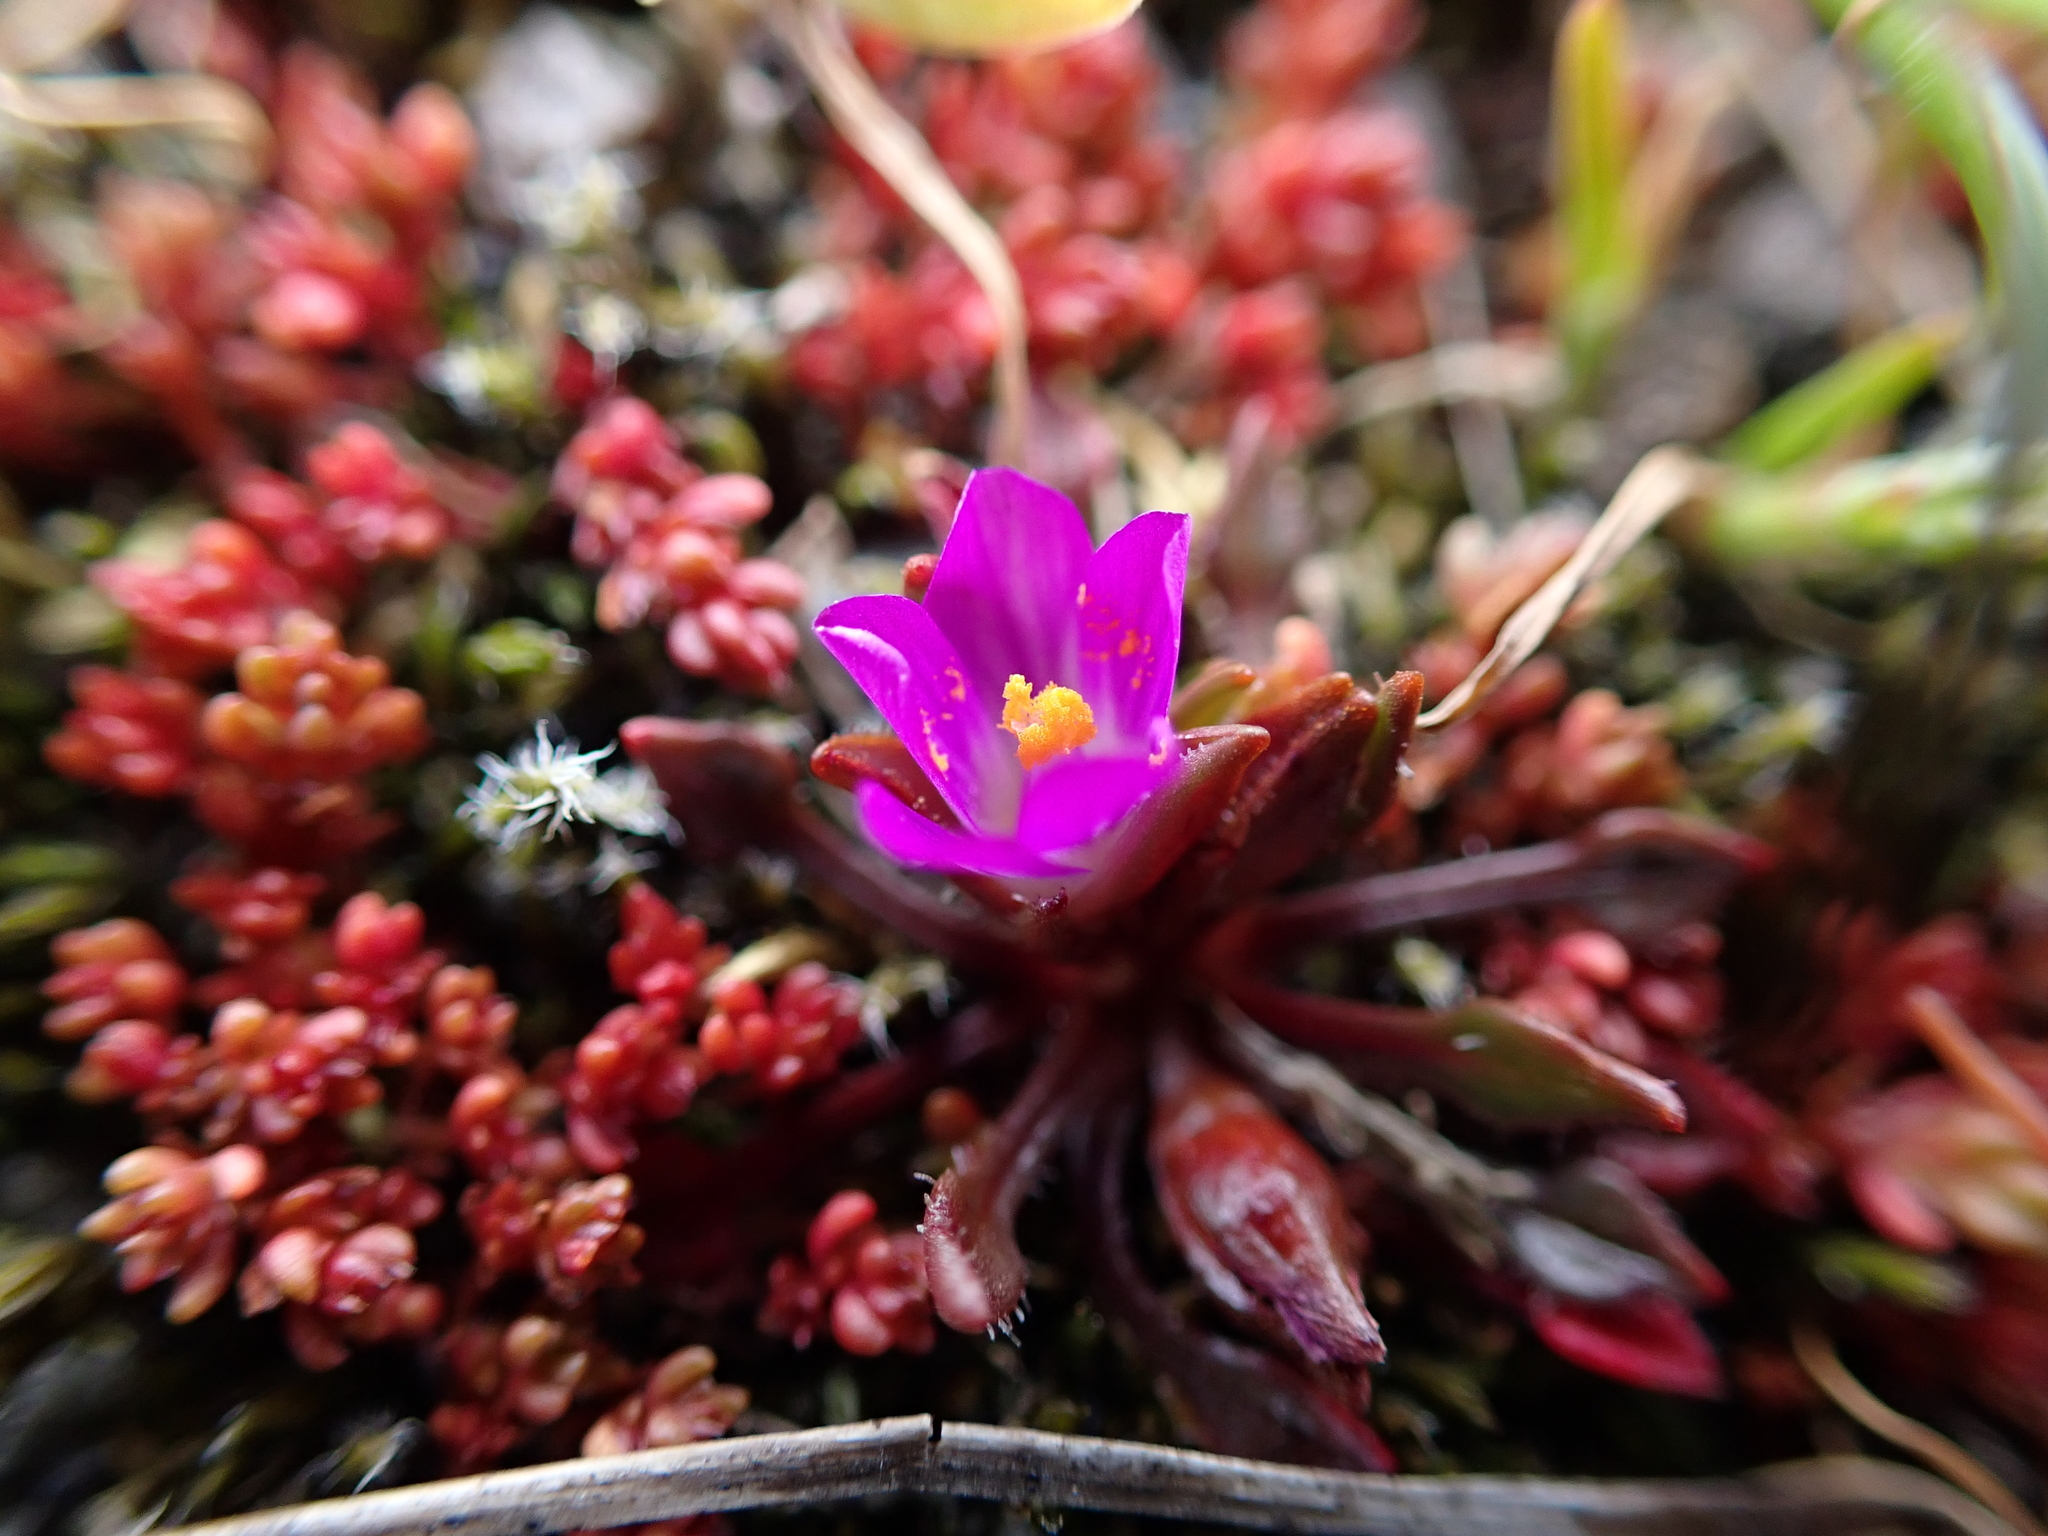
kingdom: Plantae
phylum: Tracheophyta
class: Magnoliopsida
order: Caryophyllales
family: Montiaceae
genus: Calandrinia
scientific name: Calandrinia menziesii
